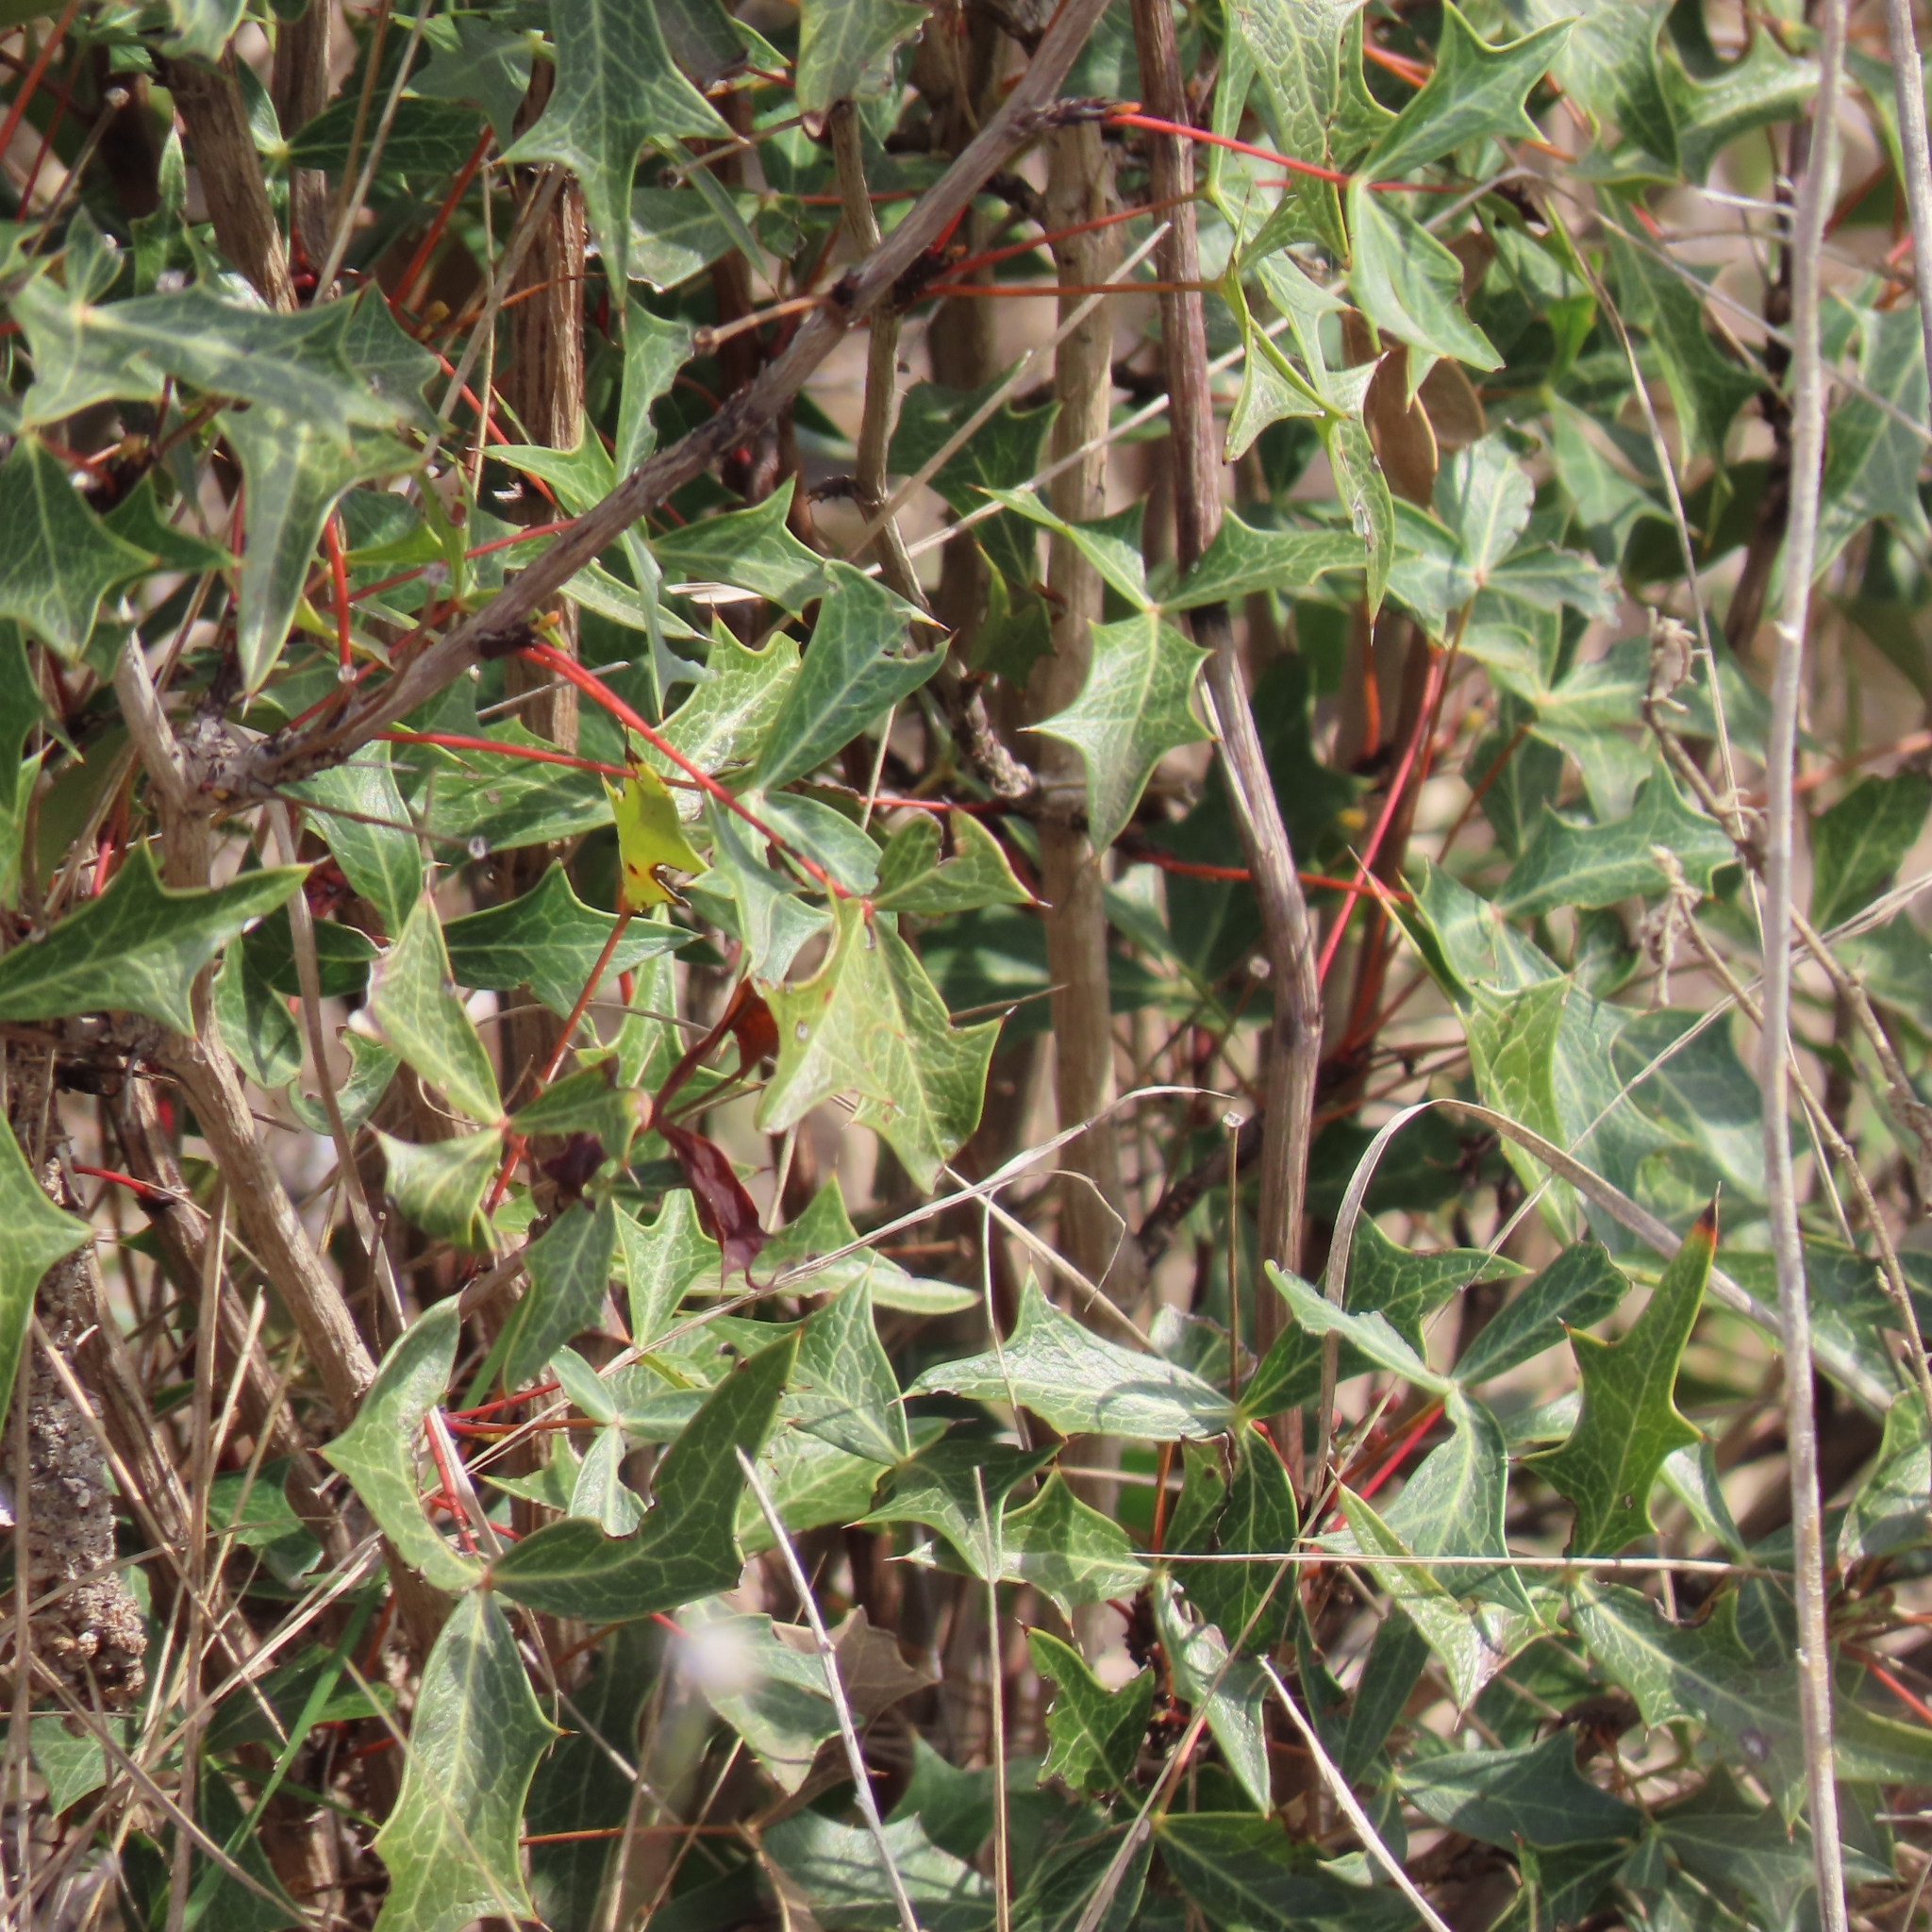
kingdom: Plantae
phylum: Tracheophyta
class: Magnoliopsida
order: Ranunculales
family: Berberidaceae
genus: Alloberberis
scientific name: Alloberberis trifoliolata
